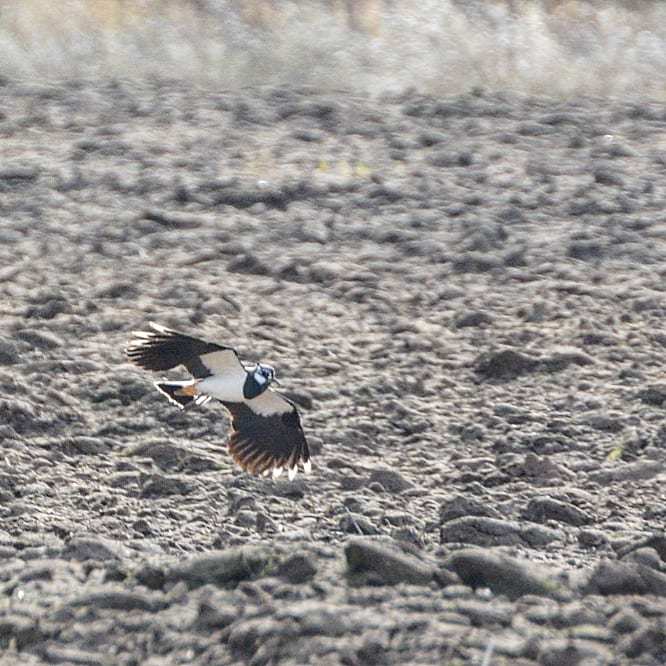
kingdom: Animalia
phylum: Chordata
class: Aves
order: Charadriiformes
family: Charadriidae
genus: Vanellus
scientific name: Vanellus vanellus
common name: Northern lapwing
